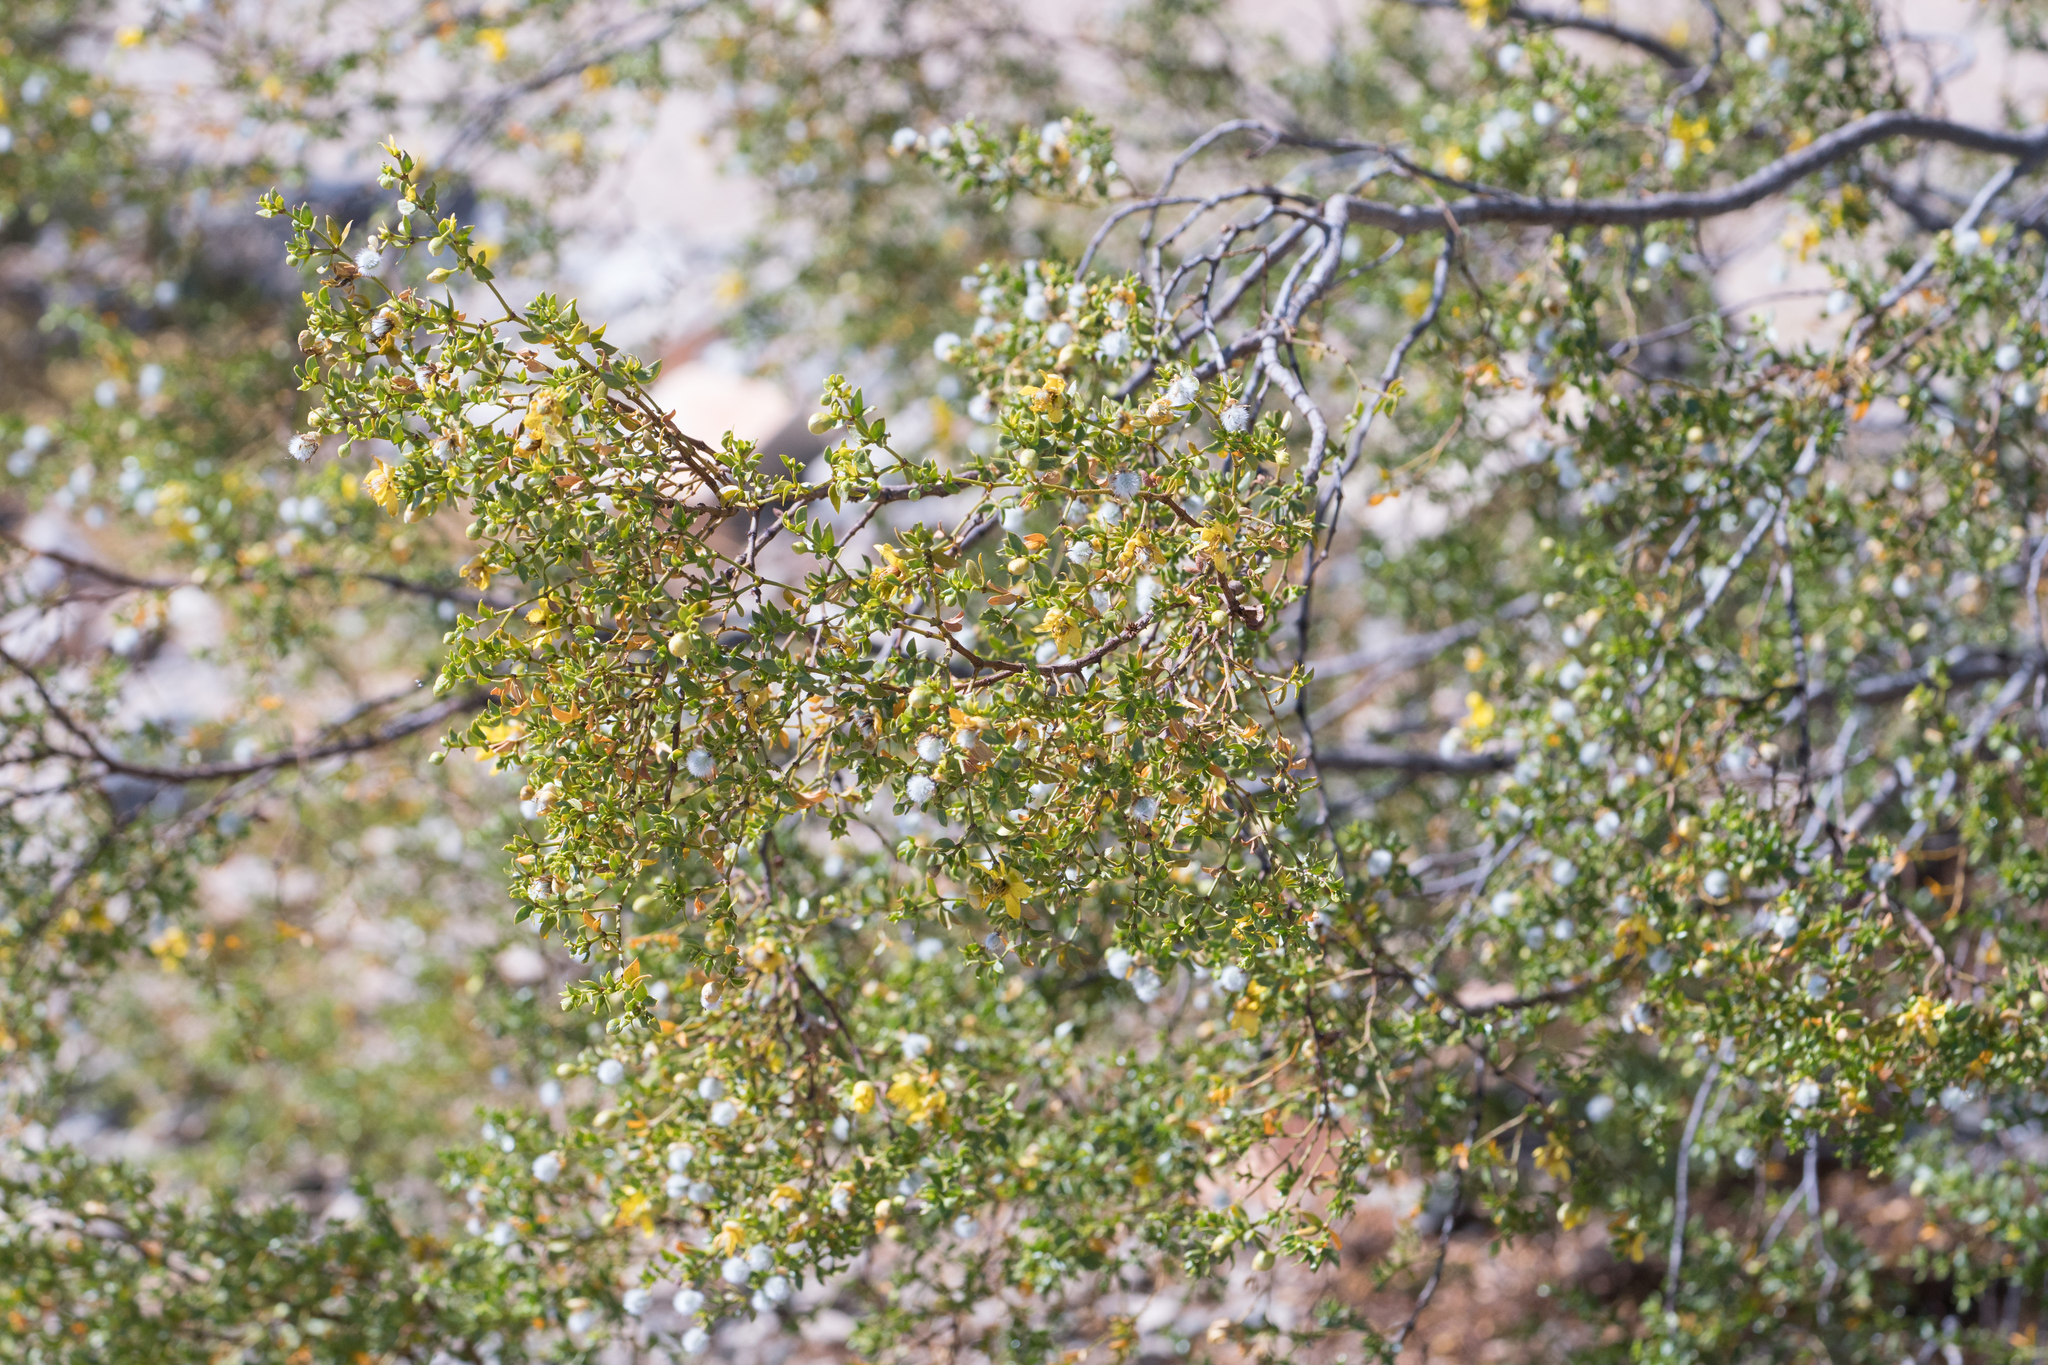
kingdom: Plantae
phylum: Tracheophyta
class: Magnoliopsida
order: Zygophyllales
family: Zygophyllaceae
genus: Larrea
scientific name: Larrea tridentata
